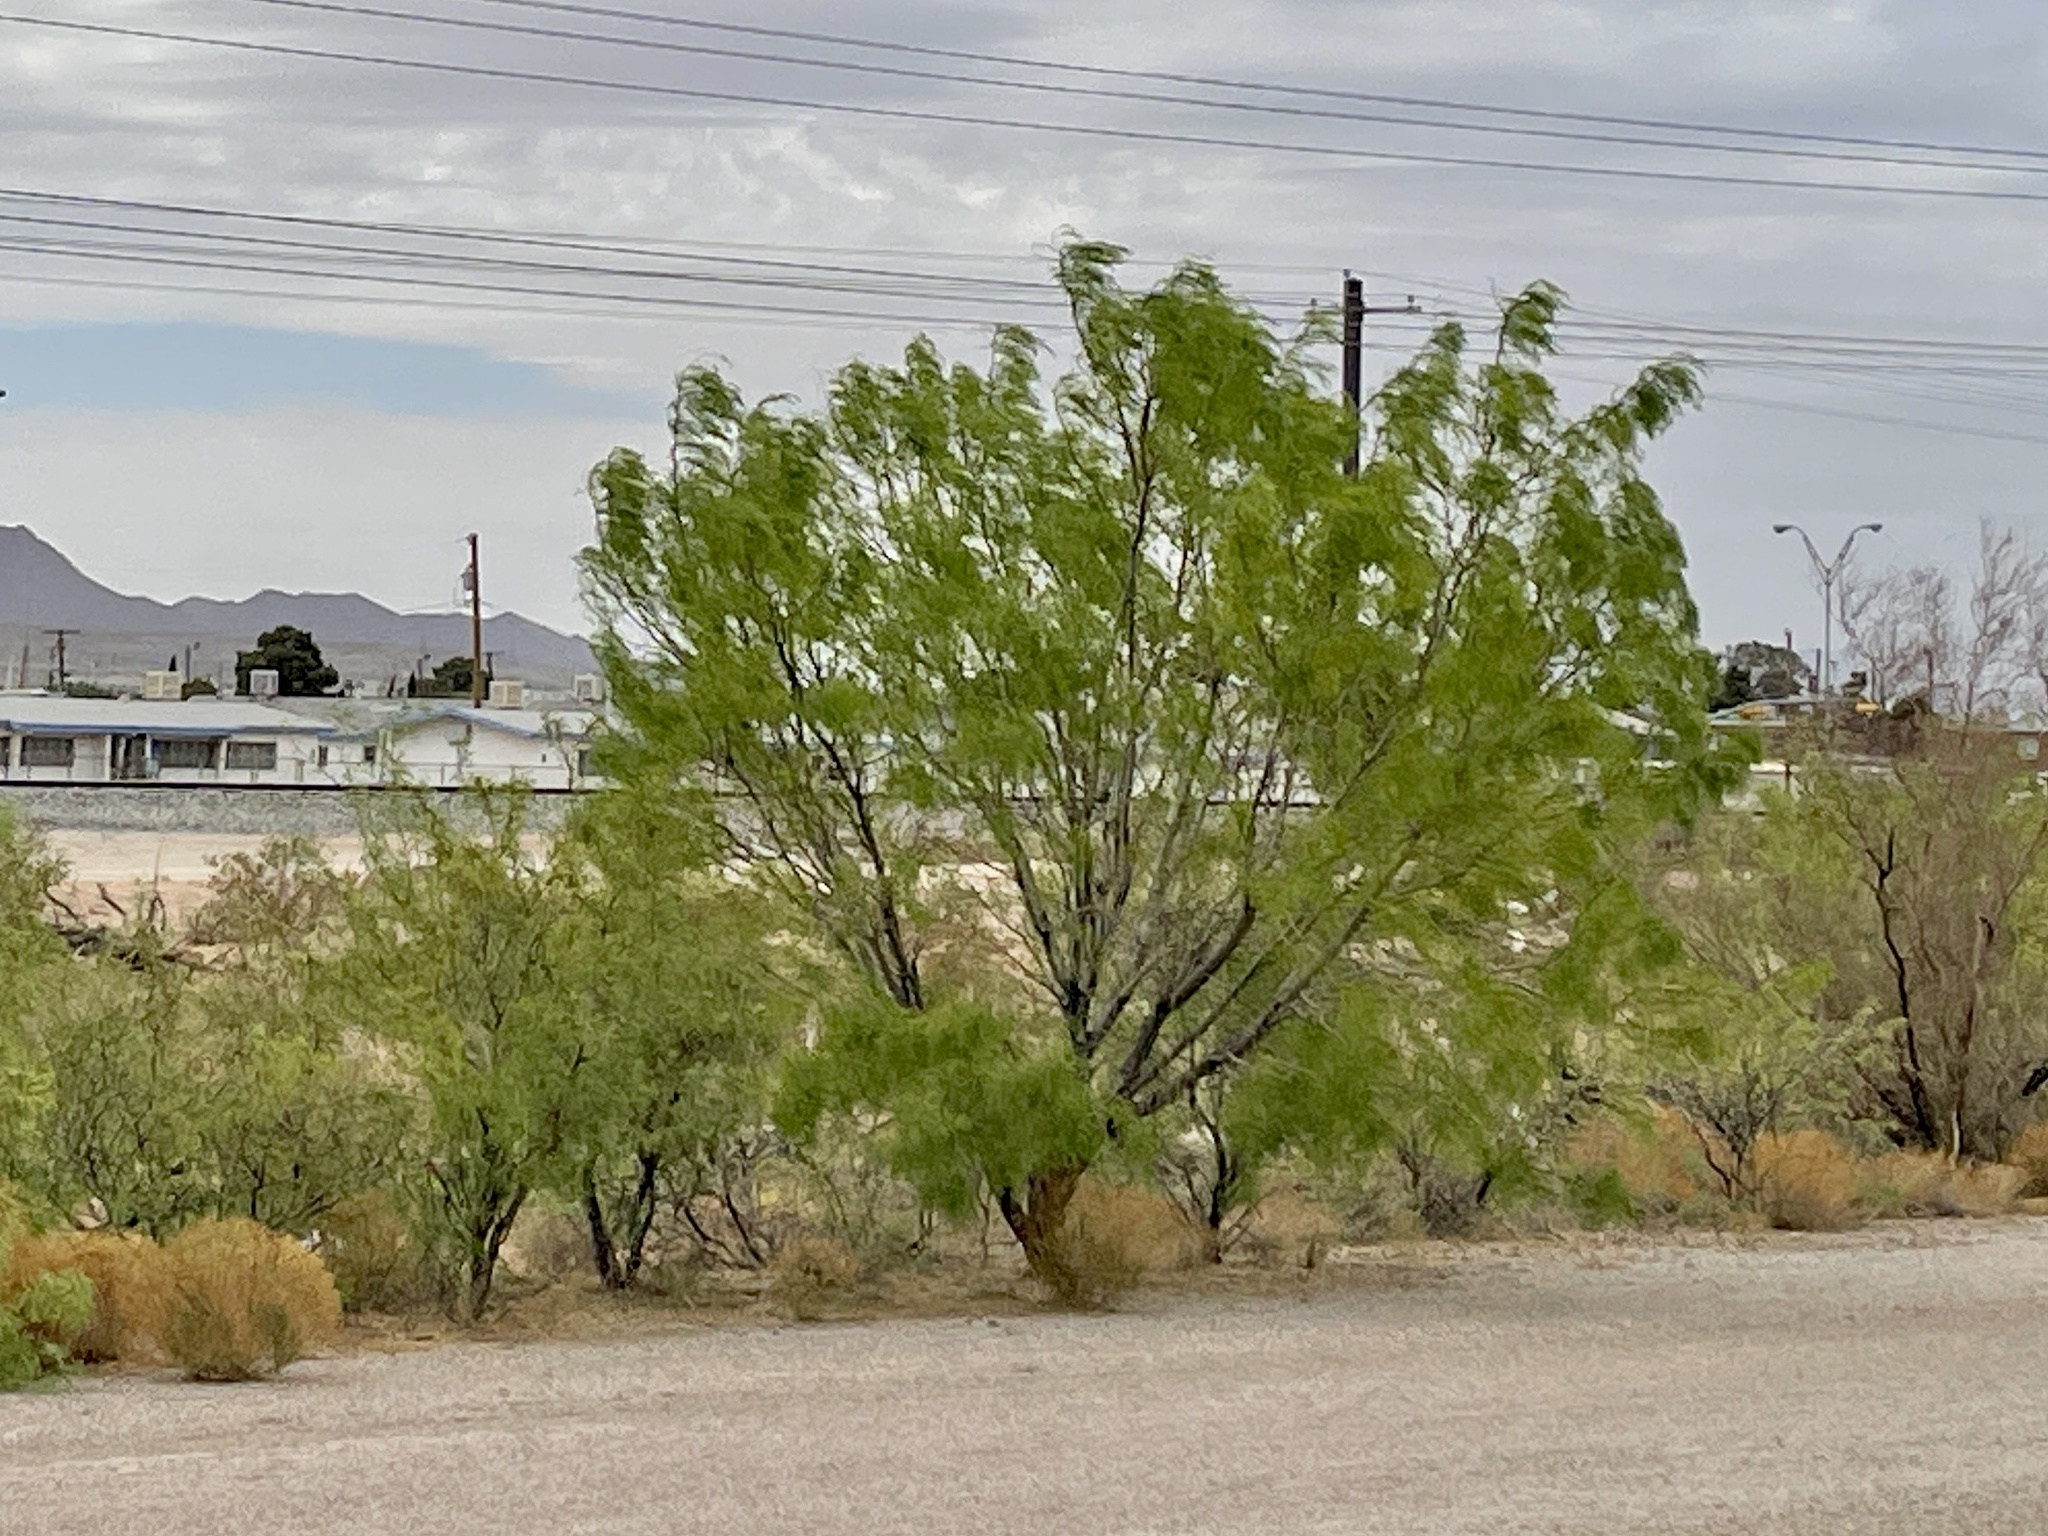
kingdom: Plantae
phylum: Tracheophyta
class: Magnoliopsida
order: Fabales
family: Fabaceae
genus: Prosopis
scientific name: Prosopis glandulosa
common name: Honey mesquite
